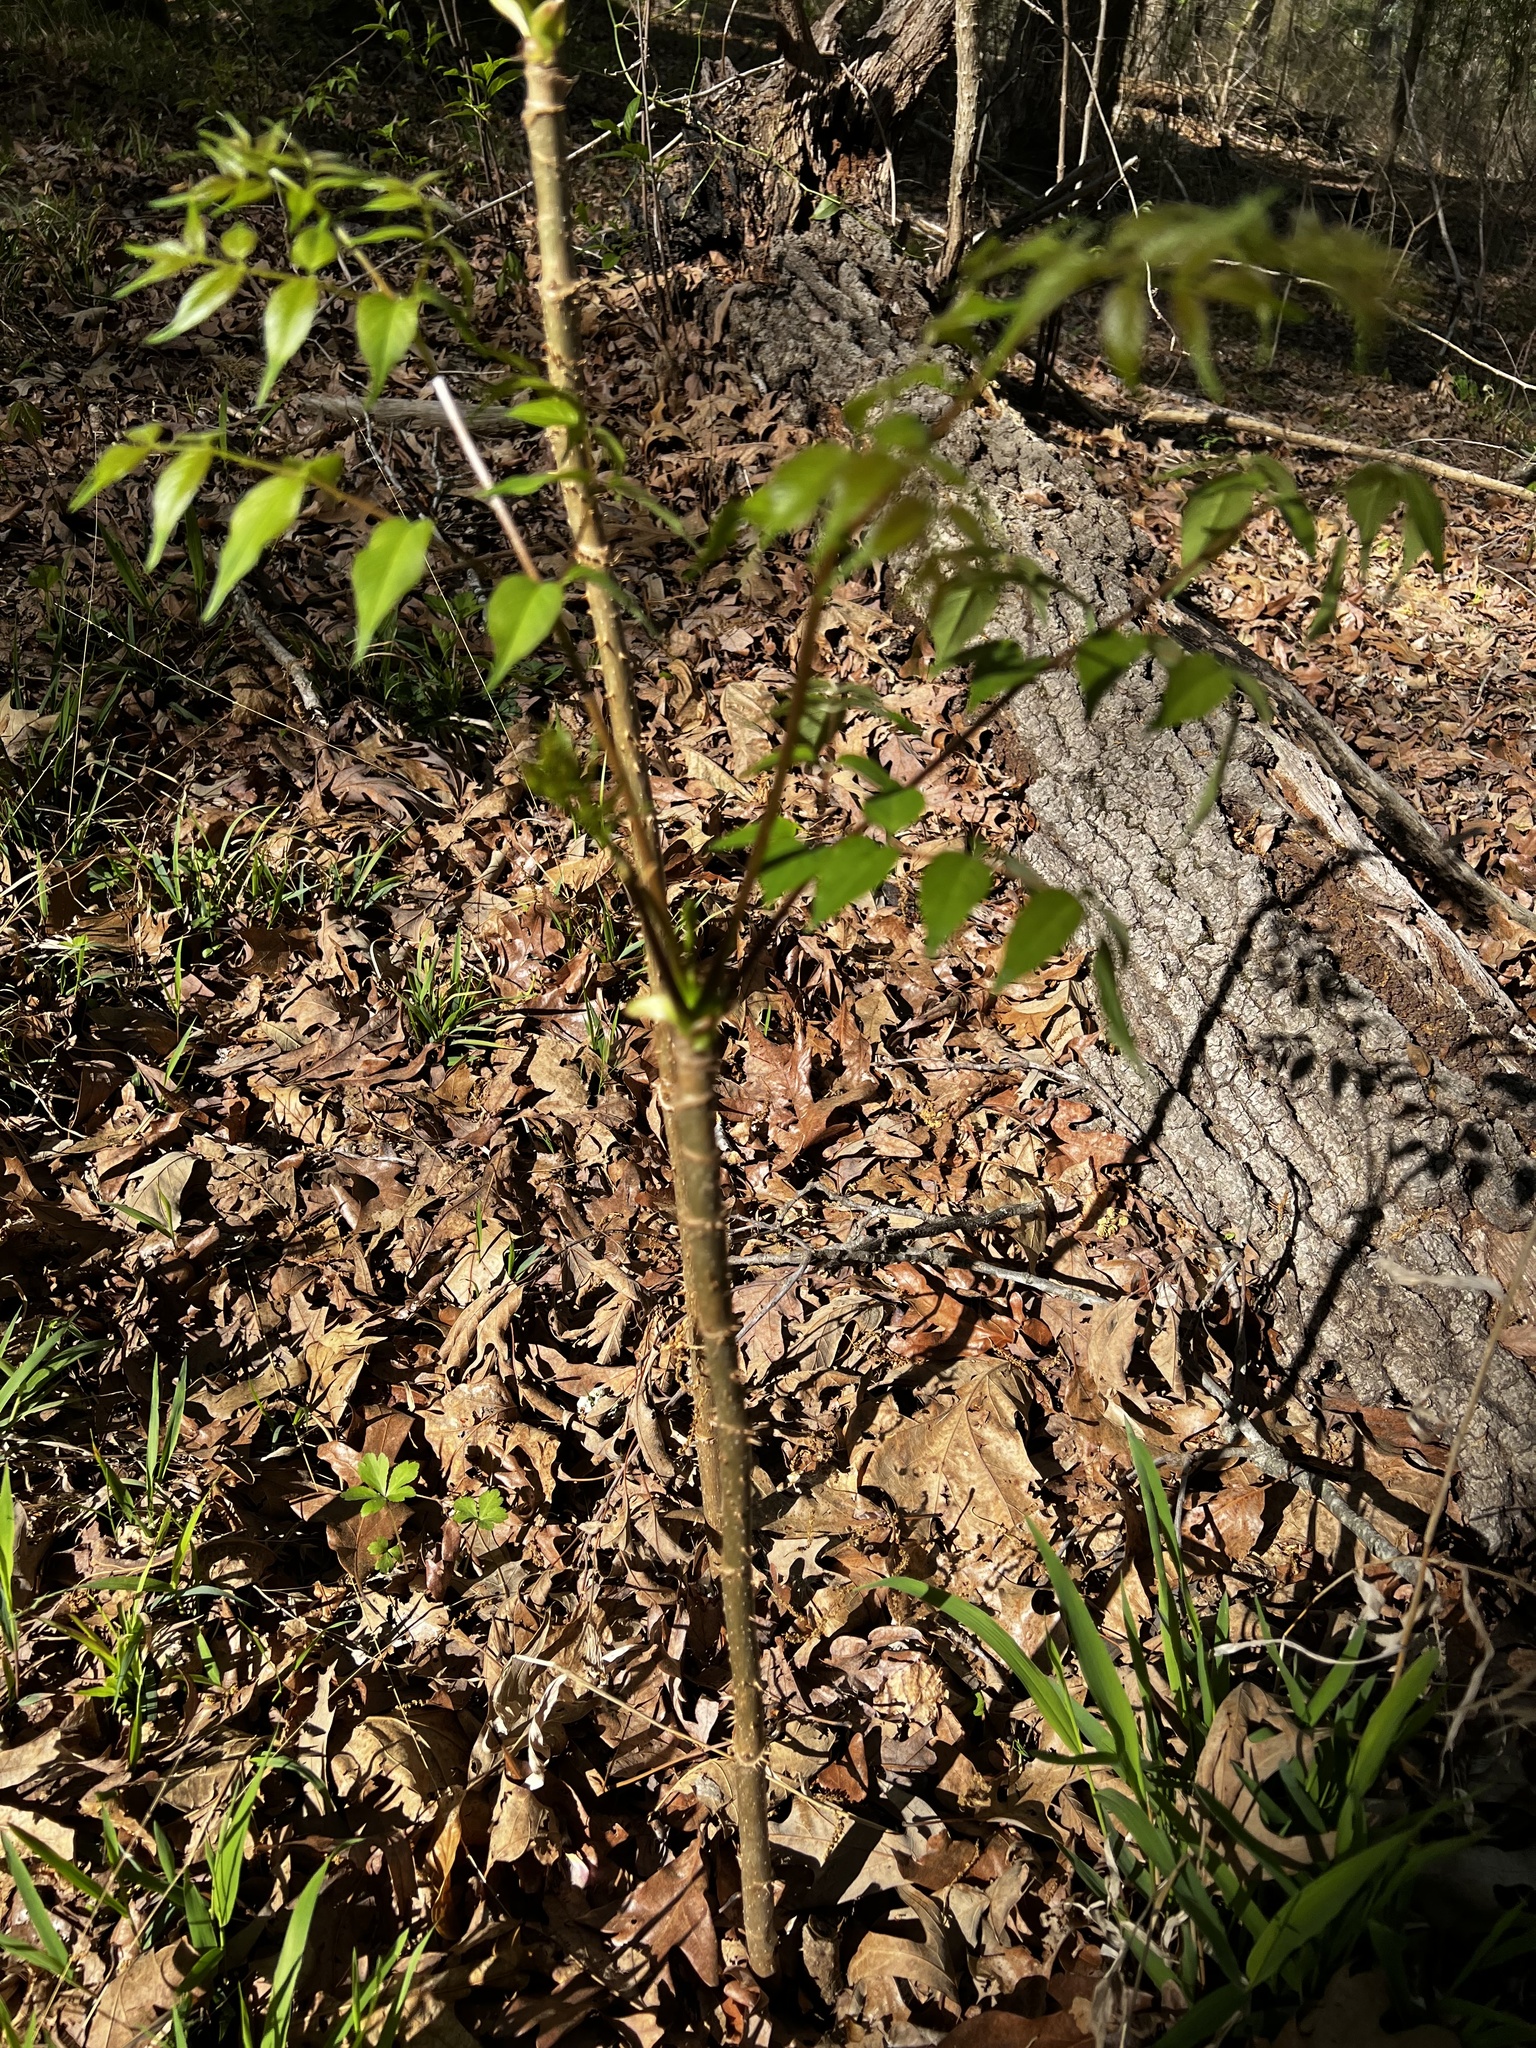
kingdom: Plantae
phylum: Tracheophyta
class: Magnoliopsida
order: Apiales
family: Araliaceae
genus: Aralia
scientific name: Aralia spinosa
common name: Hercules'-club
